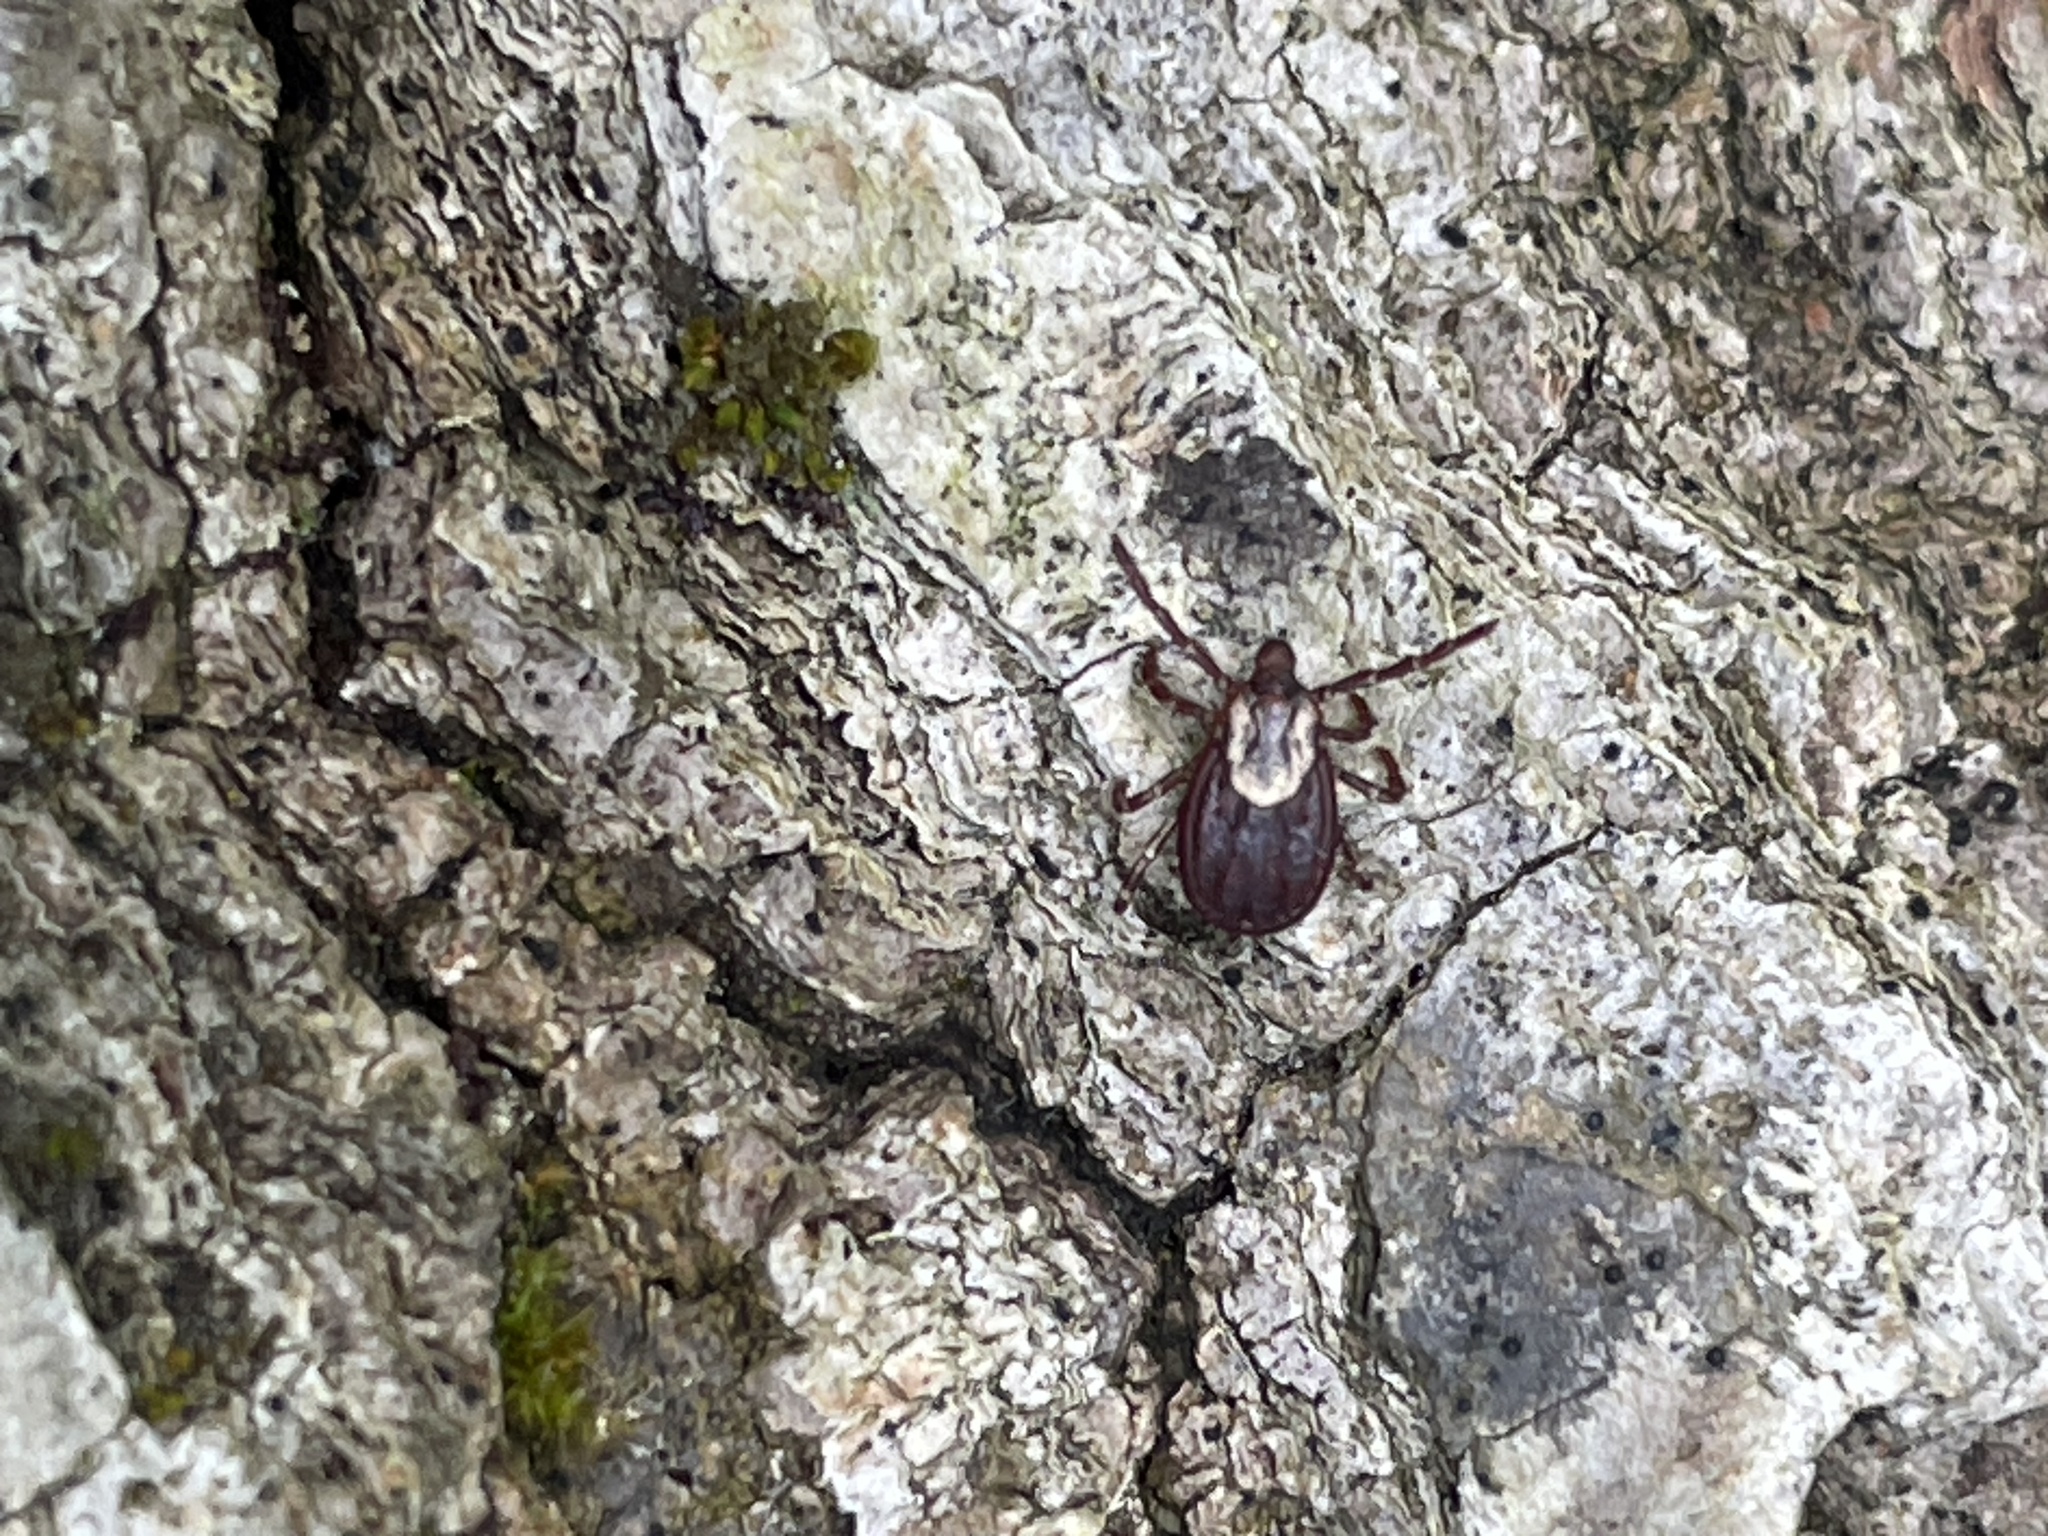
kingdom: Animalia
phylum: Arthropoda
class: Arachnida
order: Ixodida
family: Ixodidae
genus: Dermacentor
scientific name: Dermacentor variabilis
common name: American dog tick
